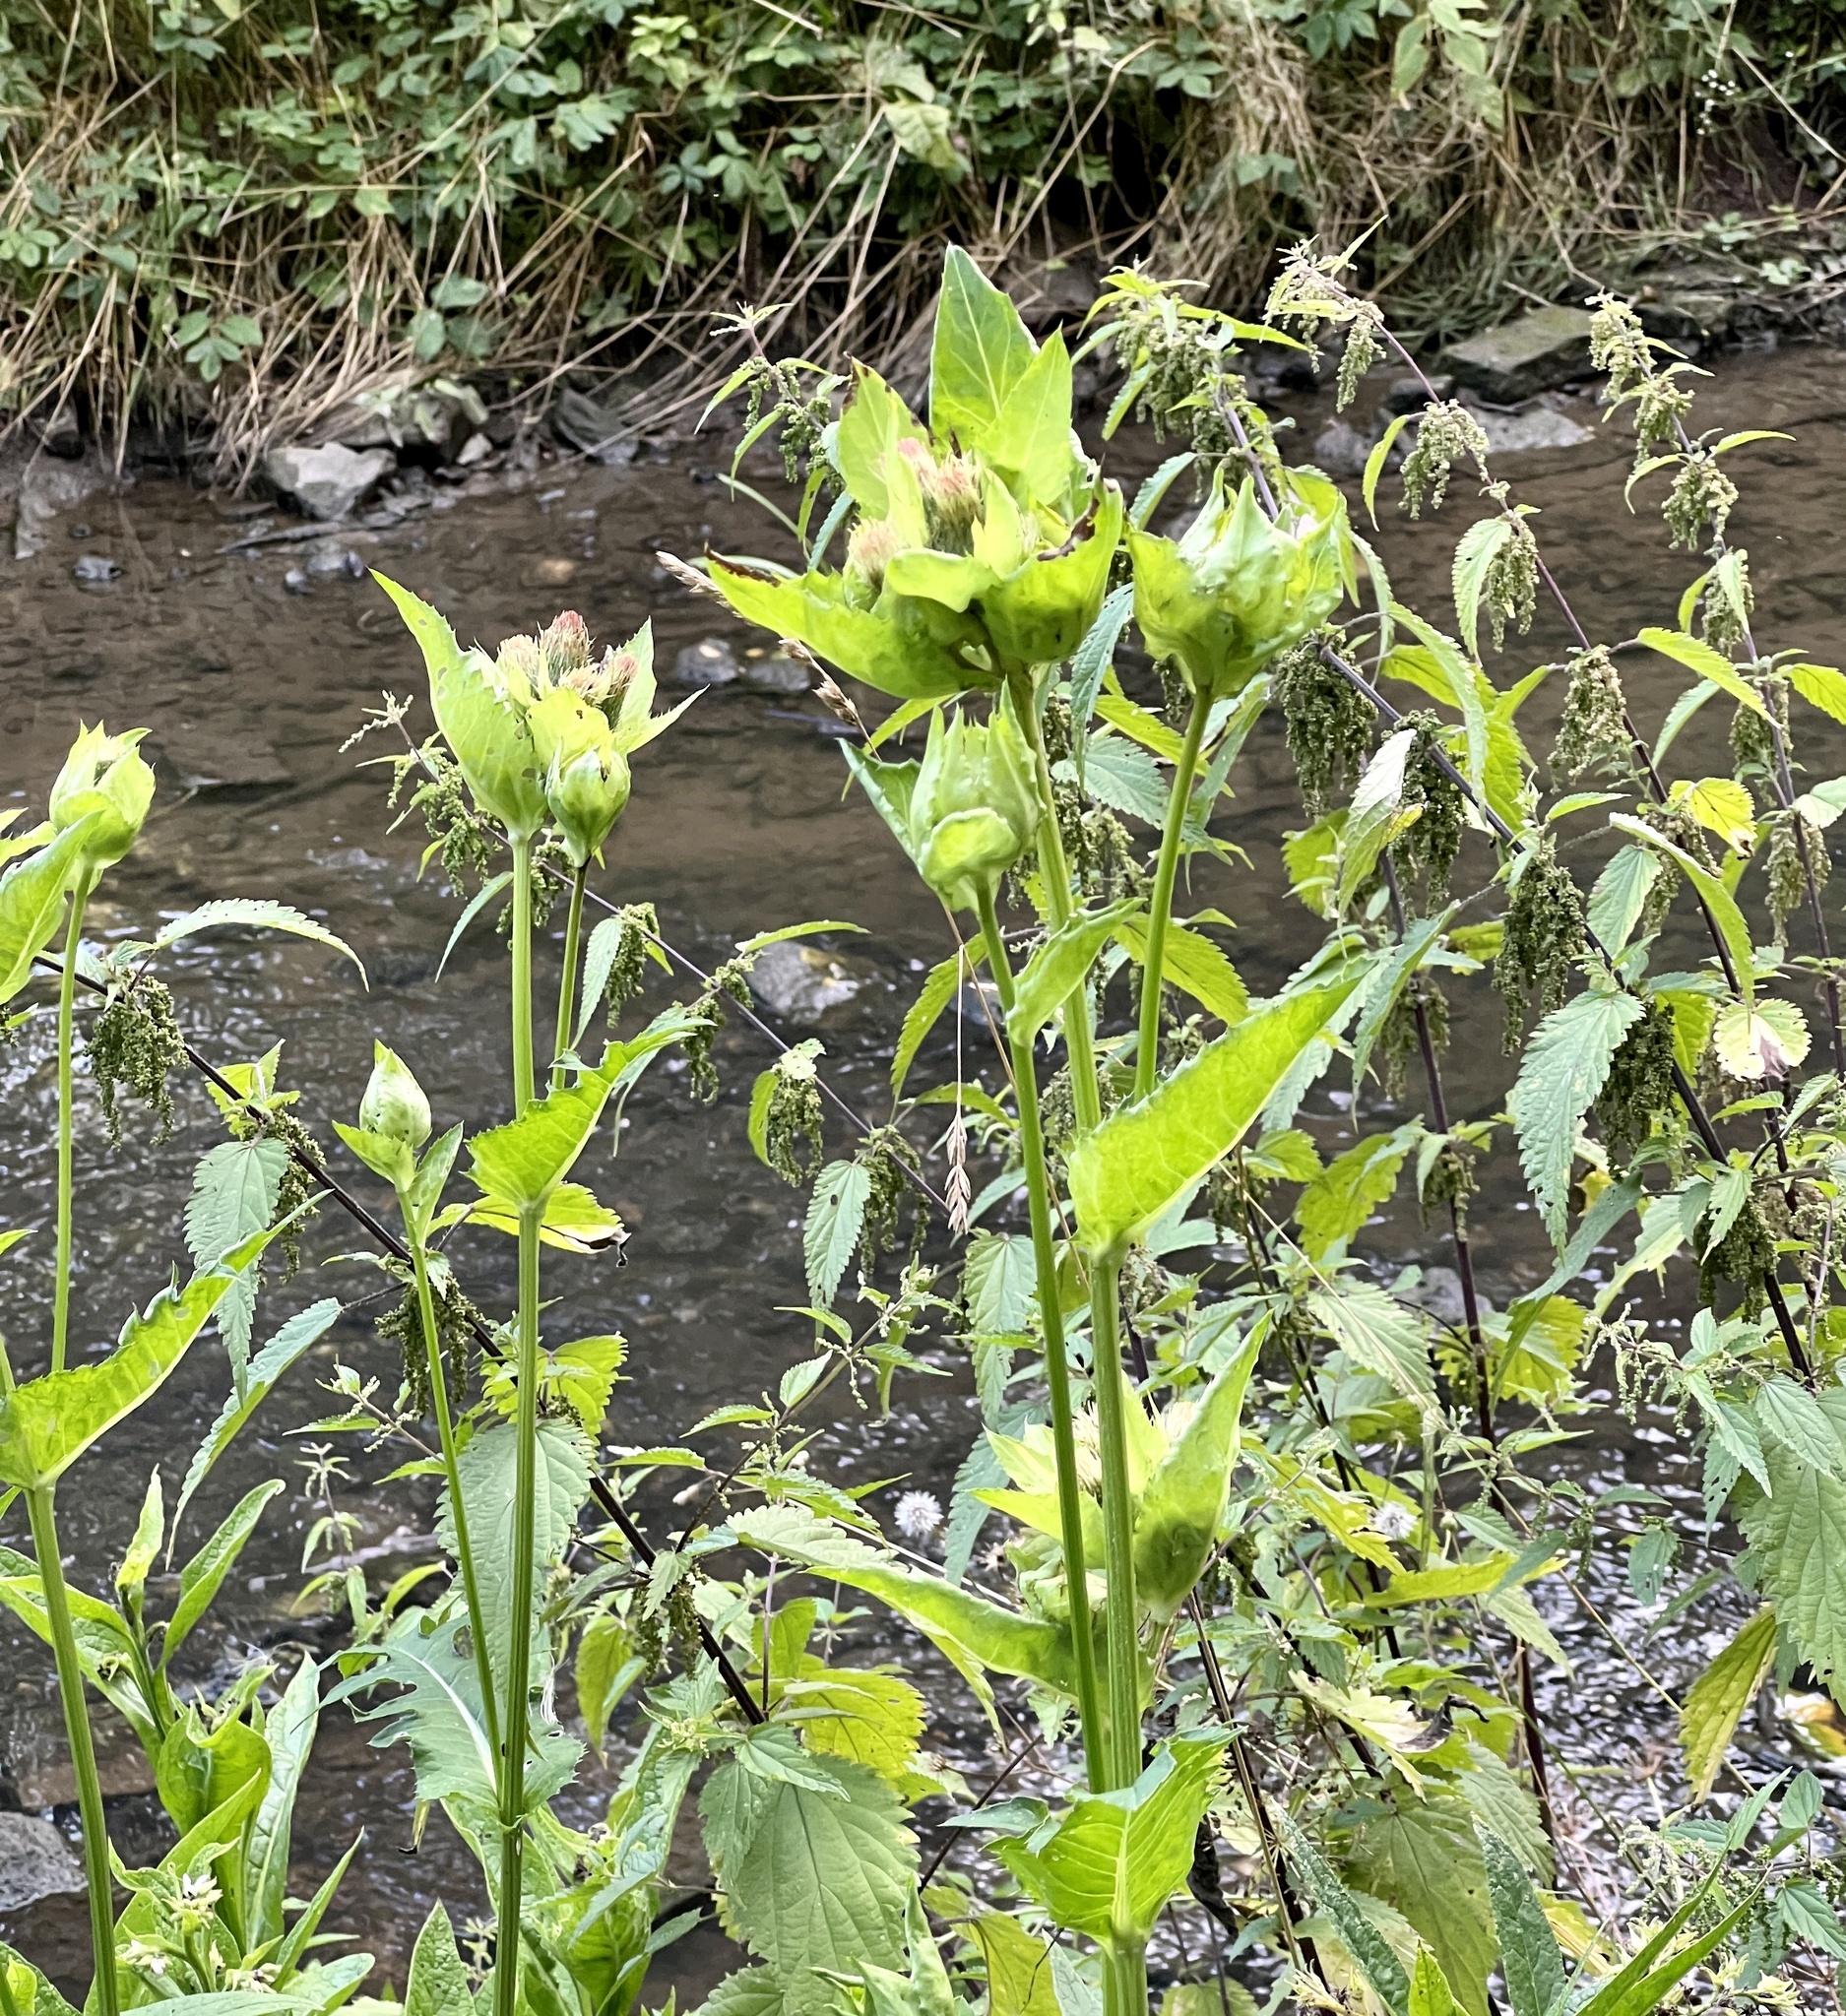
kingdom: Plantae
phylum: Tracheophyta
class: Magnoliopsida
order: Asterales
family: Asteraceae
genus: Cirsium
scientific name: Cirsium oleraceum
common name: Cabbage thistle
